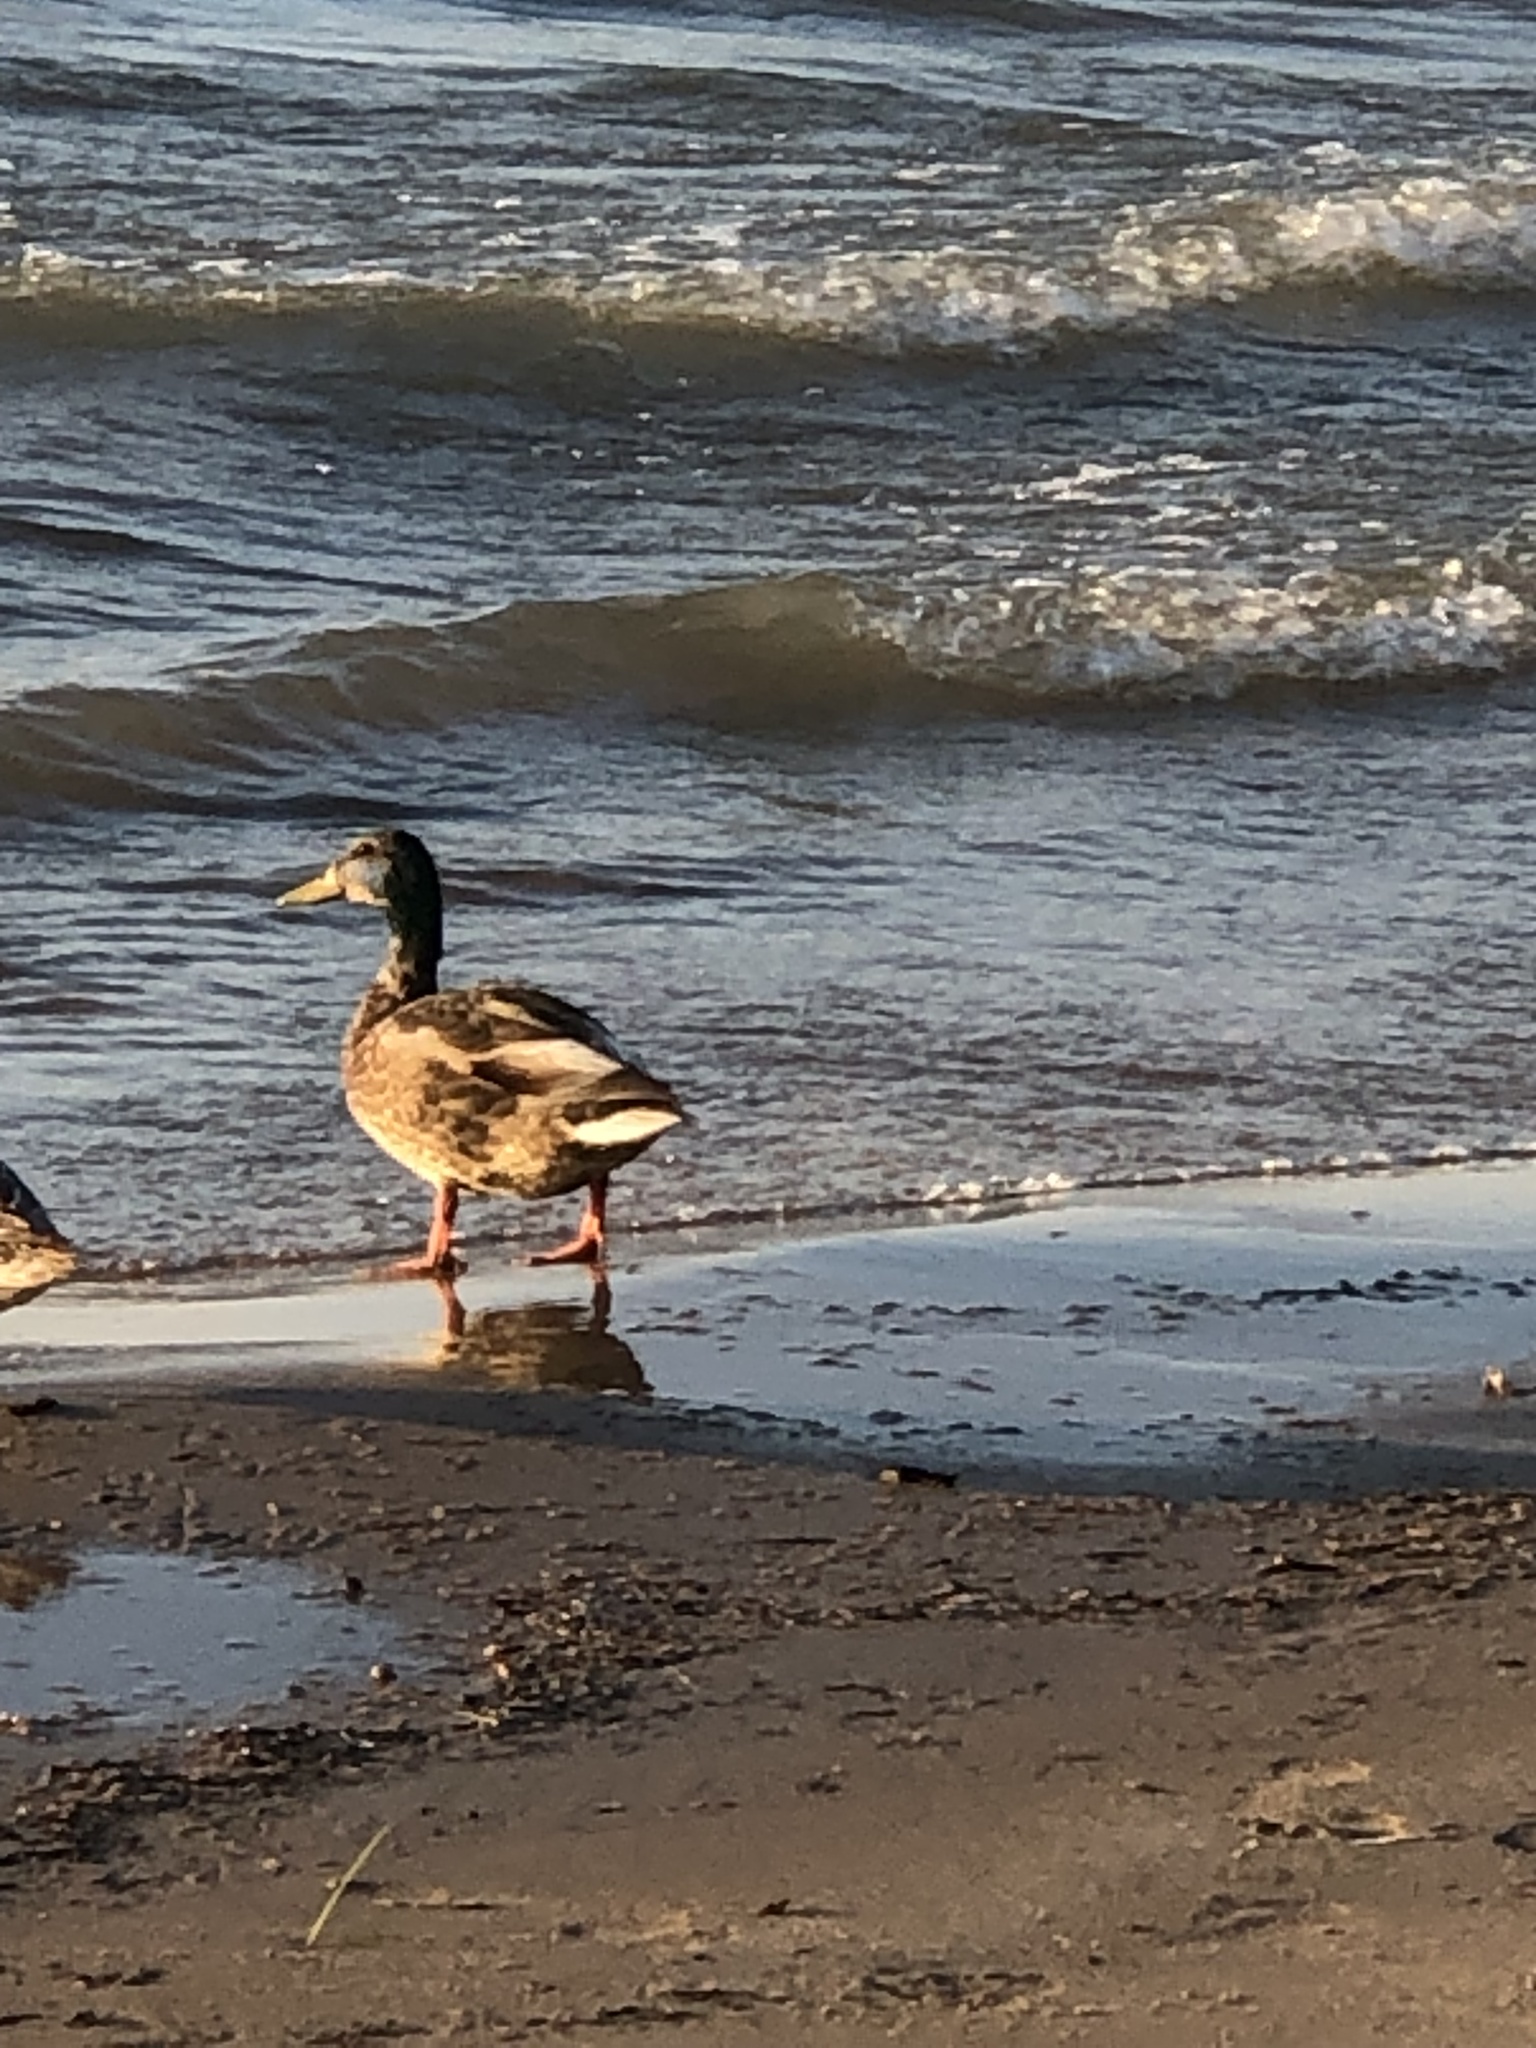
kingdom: Animalia
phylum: Chordata
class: Aves
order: Anseriformes
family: Anatidae
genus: Anas
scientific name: Anas platyrhynchos
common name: Mallard
